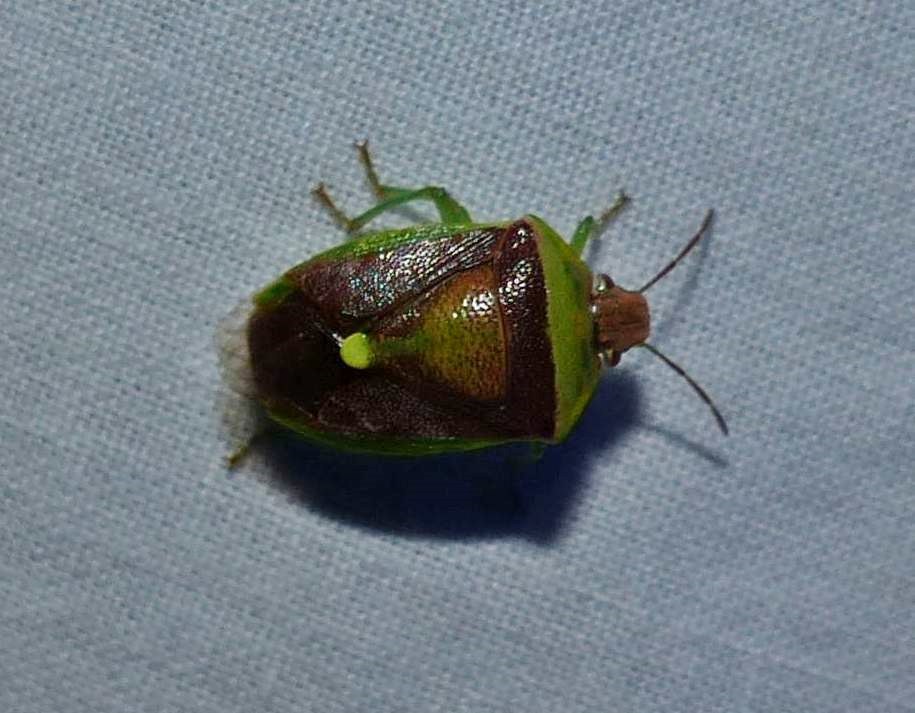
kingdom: Animalia
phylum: Arthropoda
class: Insecta
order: Hemiptera
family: Pentatomidae
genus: Banasa
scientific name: Banasa dimidiata
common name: Green burgundy stink bug
